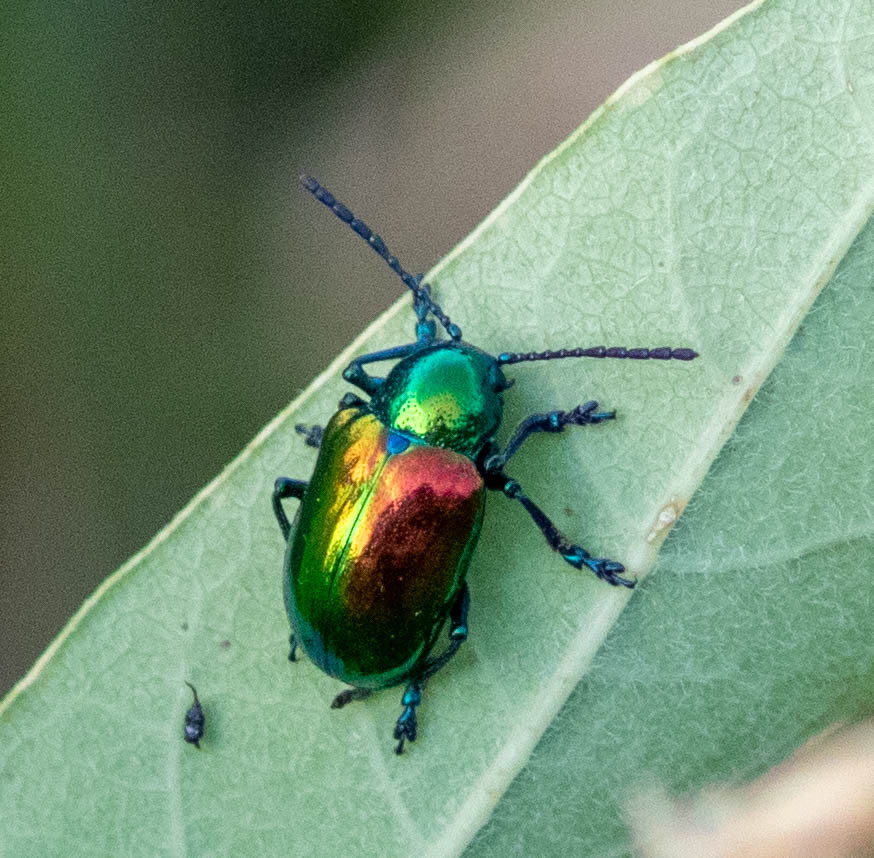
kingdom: Animalia
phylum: Arthropoda
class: Insecta
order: Coleoptera
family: Chrysomelidae
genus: Chrysochus
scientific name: Chrysochus auratus
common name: Dogbane leaf beetle
